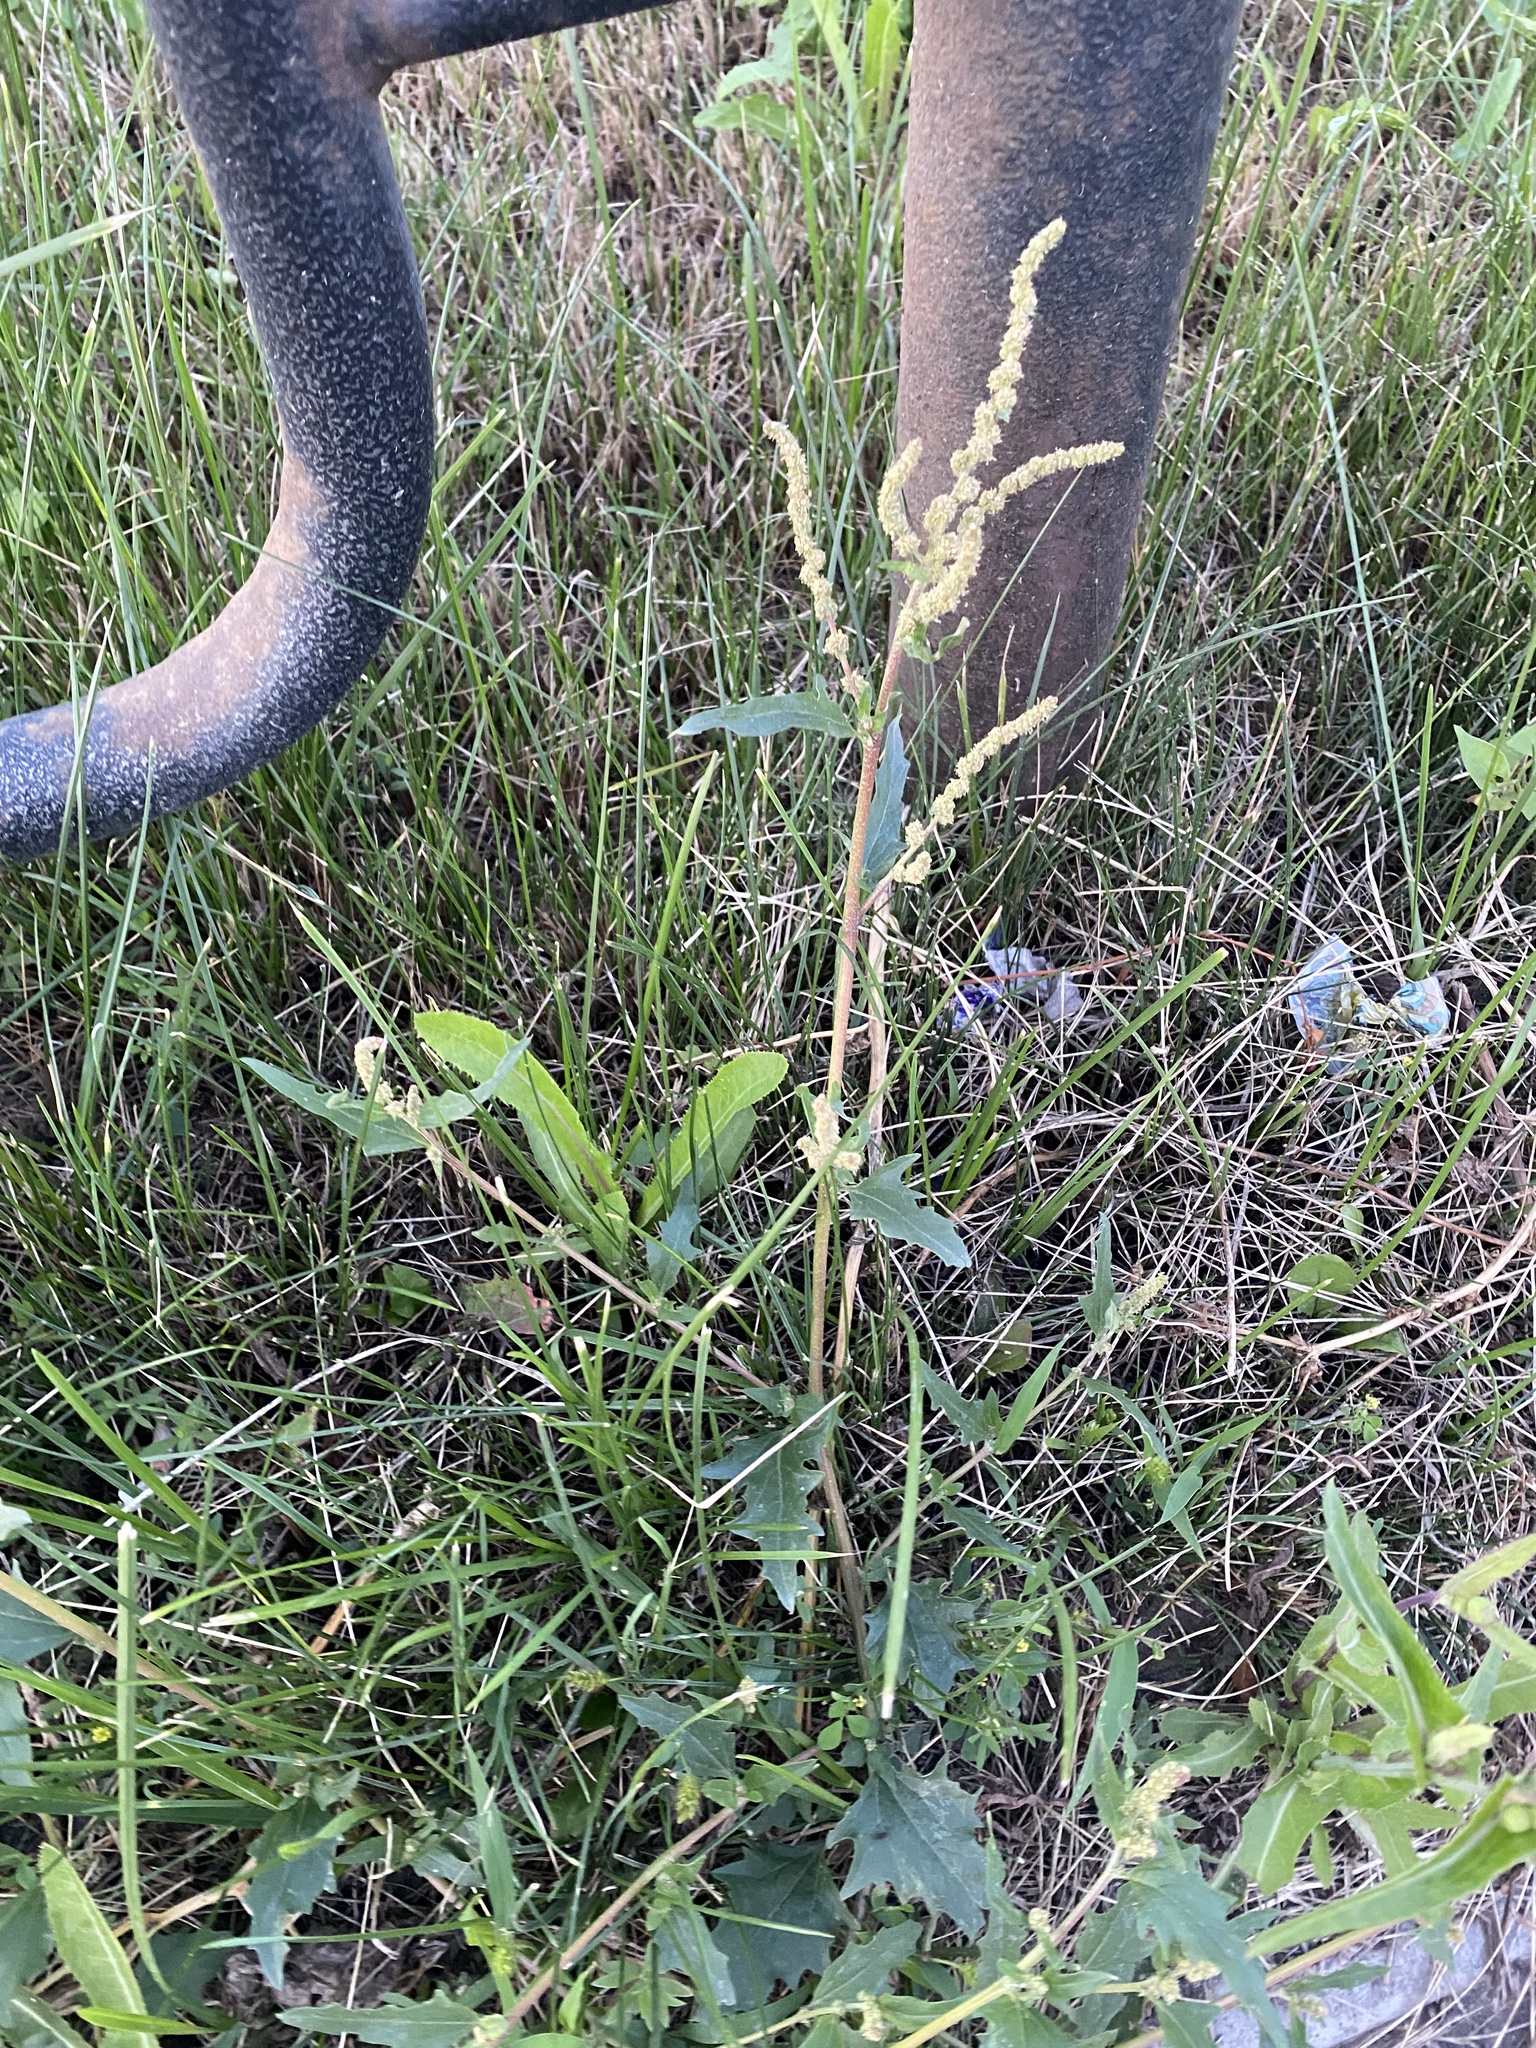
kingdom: Plantae
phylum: Tracheophyta
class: Magnoliopsida
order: Caryophyllales
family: Amaranthaceae
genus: Atriplex
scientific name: Atriplex tatarica
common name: Tatarian orache
